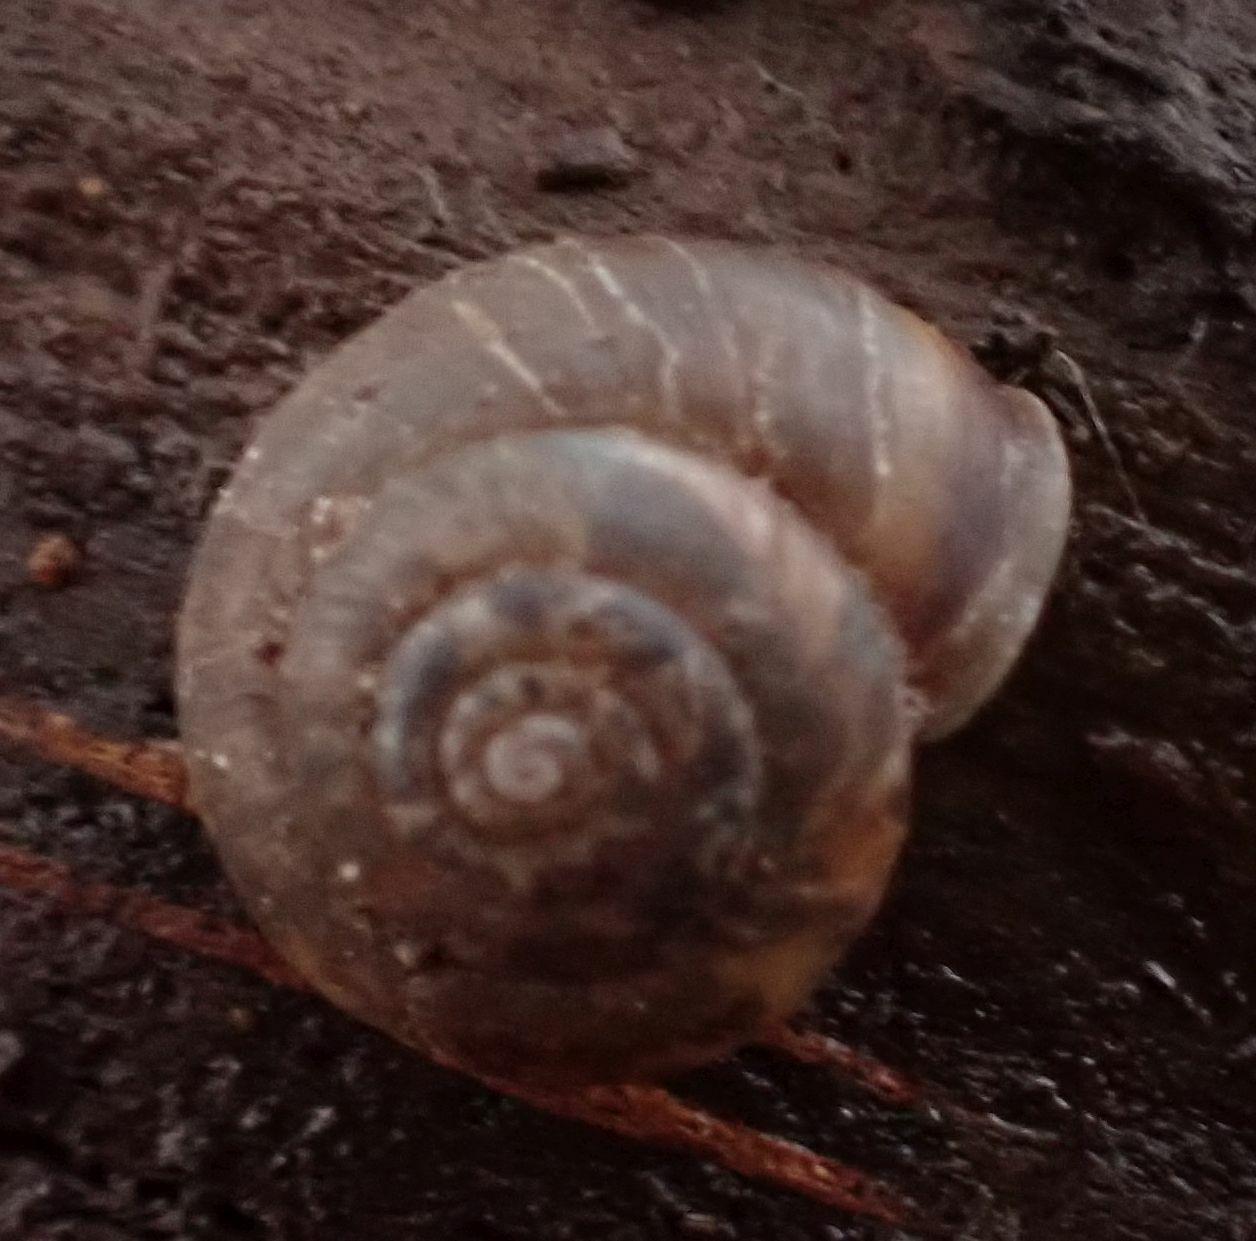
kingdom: Animalia
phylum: Mollusca
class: Gastropoda
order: Stylommatophora
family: Hygromiidae
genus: Trochulus
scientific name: Trochulus striolatus
